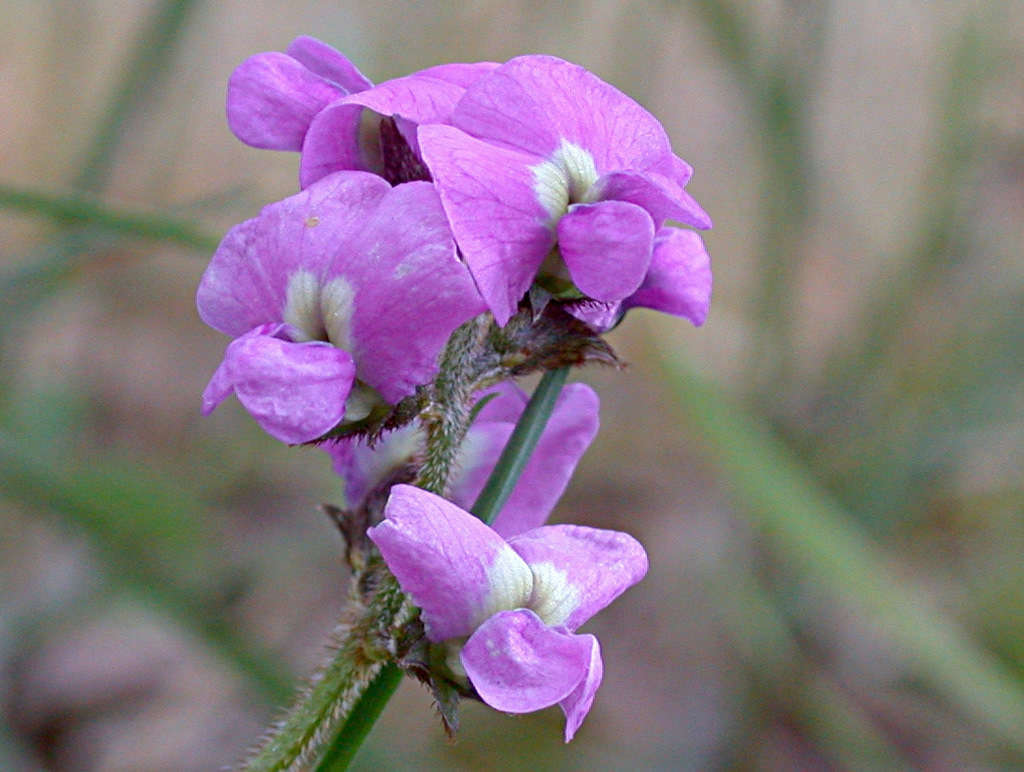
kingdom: Plantae
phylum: Tracheophyta
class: Magnoliopsida
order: Fabales
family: Fabaceae
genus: Glycine
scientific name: Glycine clandestina
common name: Twining glycine
